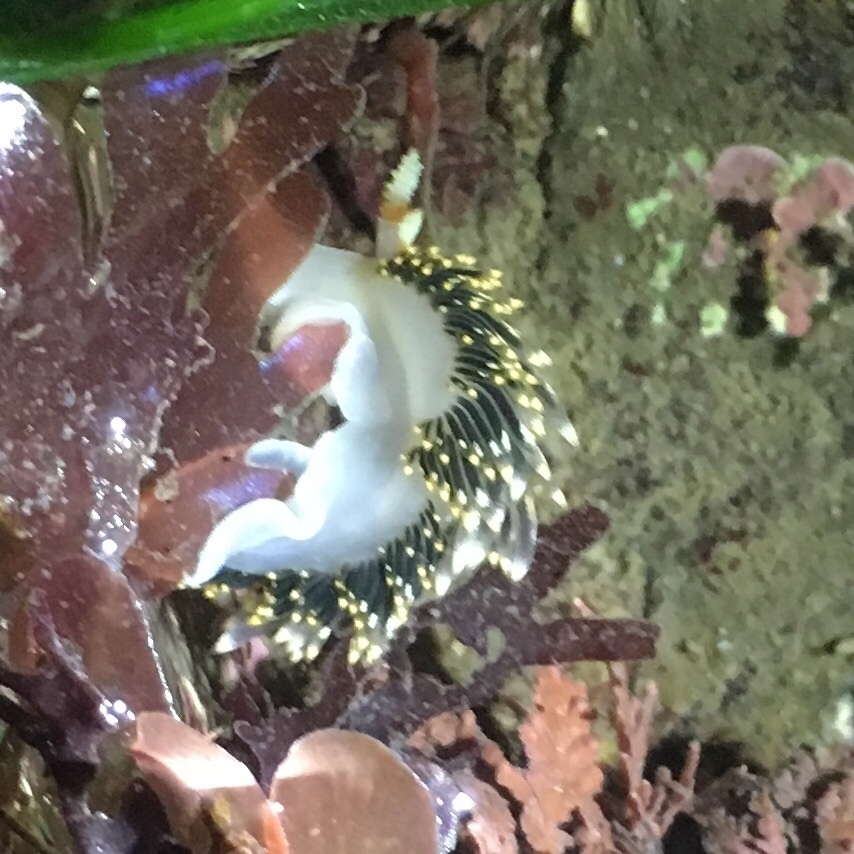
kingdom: Animalia
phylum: Mollusca
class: Gastropoda
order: Nudibranchia
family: Facelinidae
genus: Phidiana
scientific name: Phidiana hiltoni
